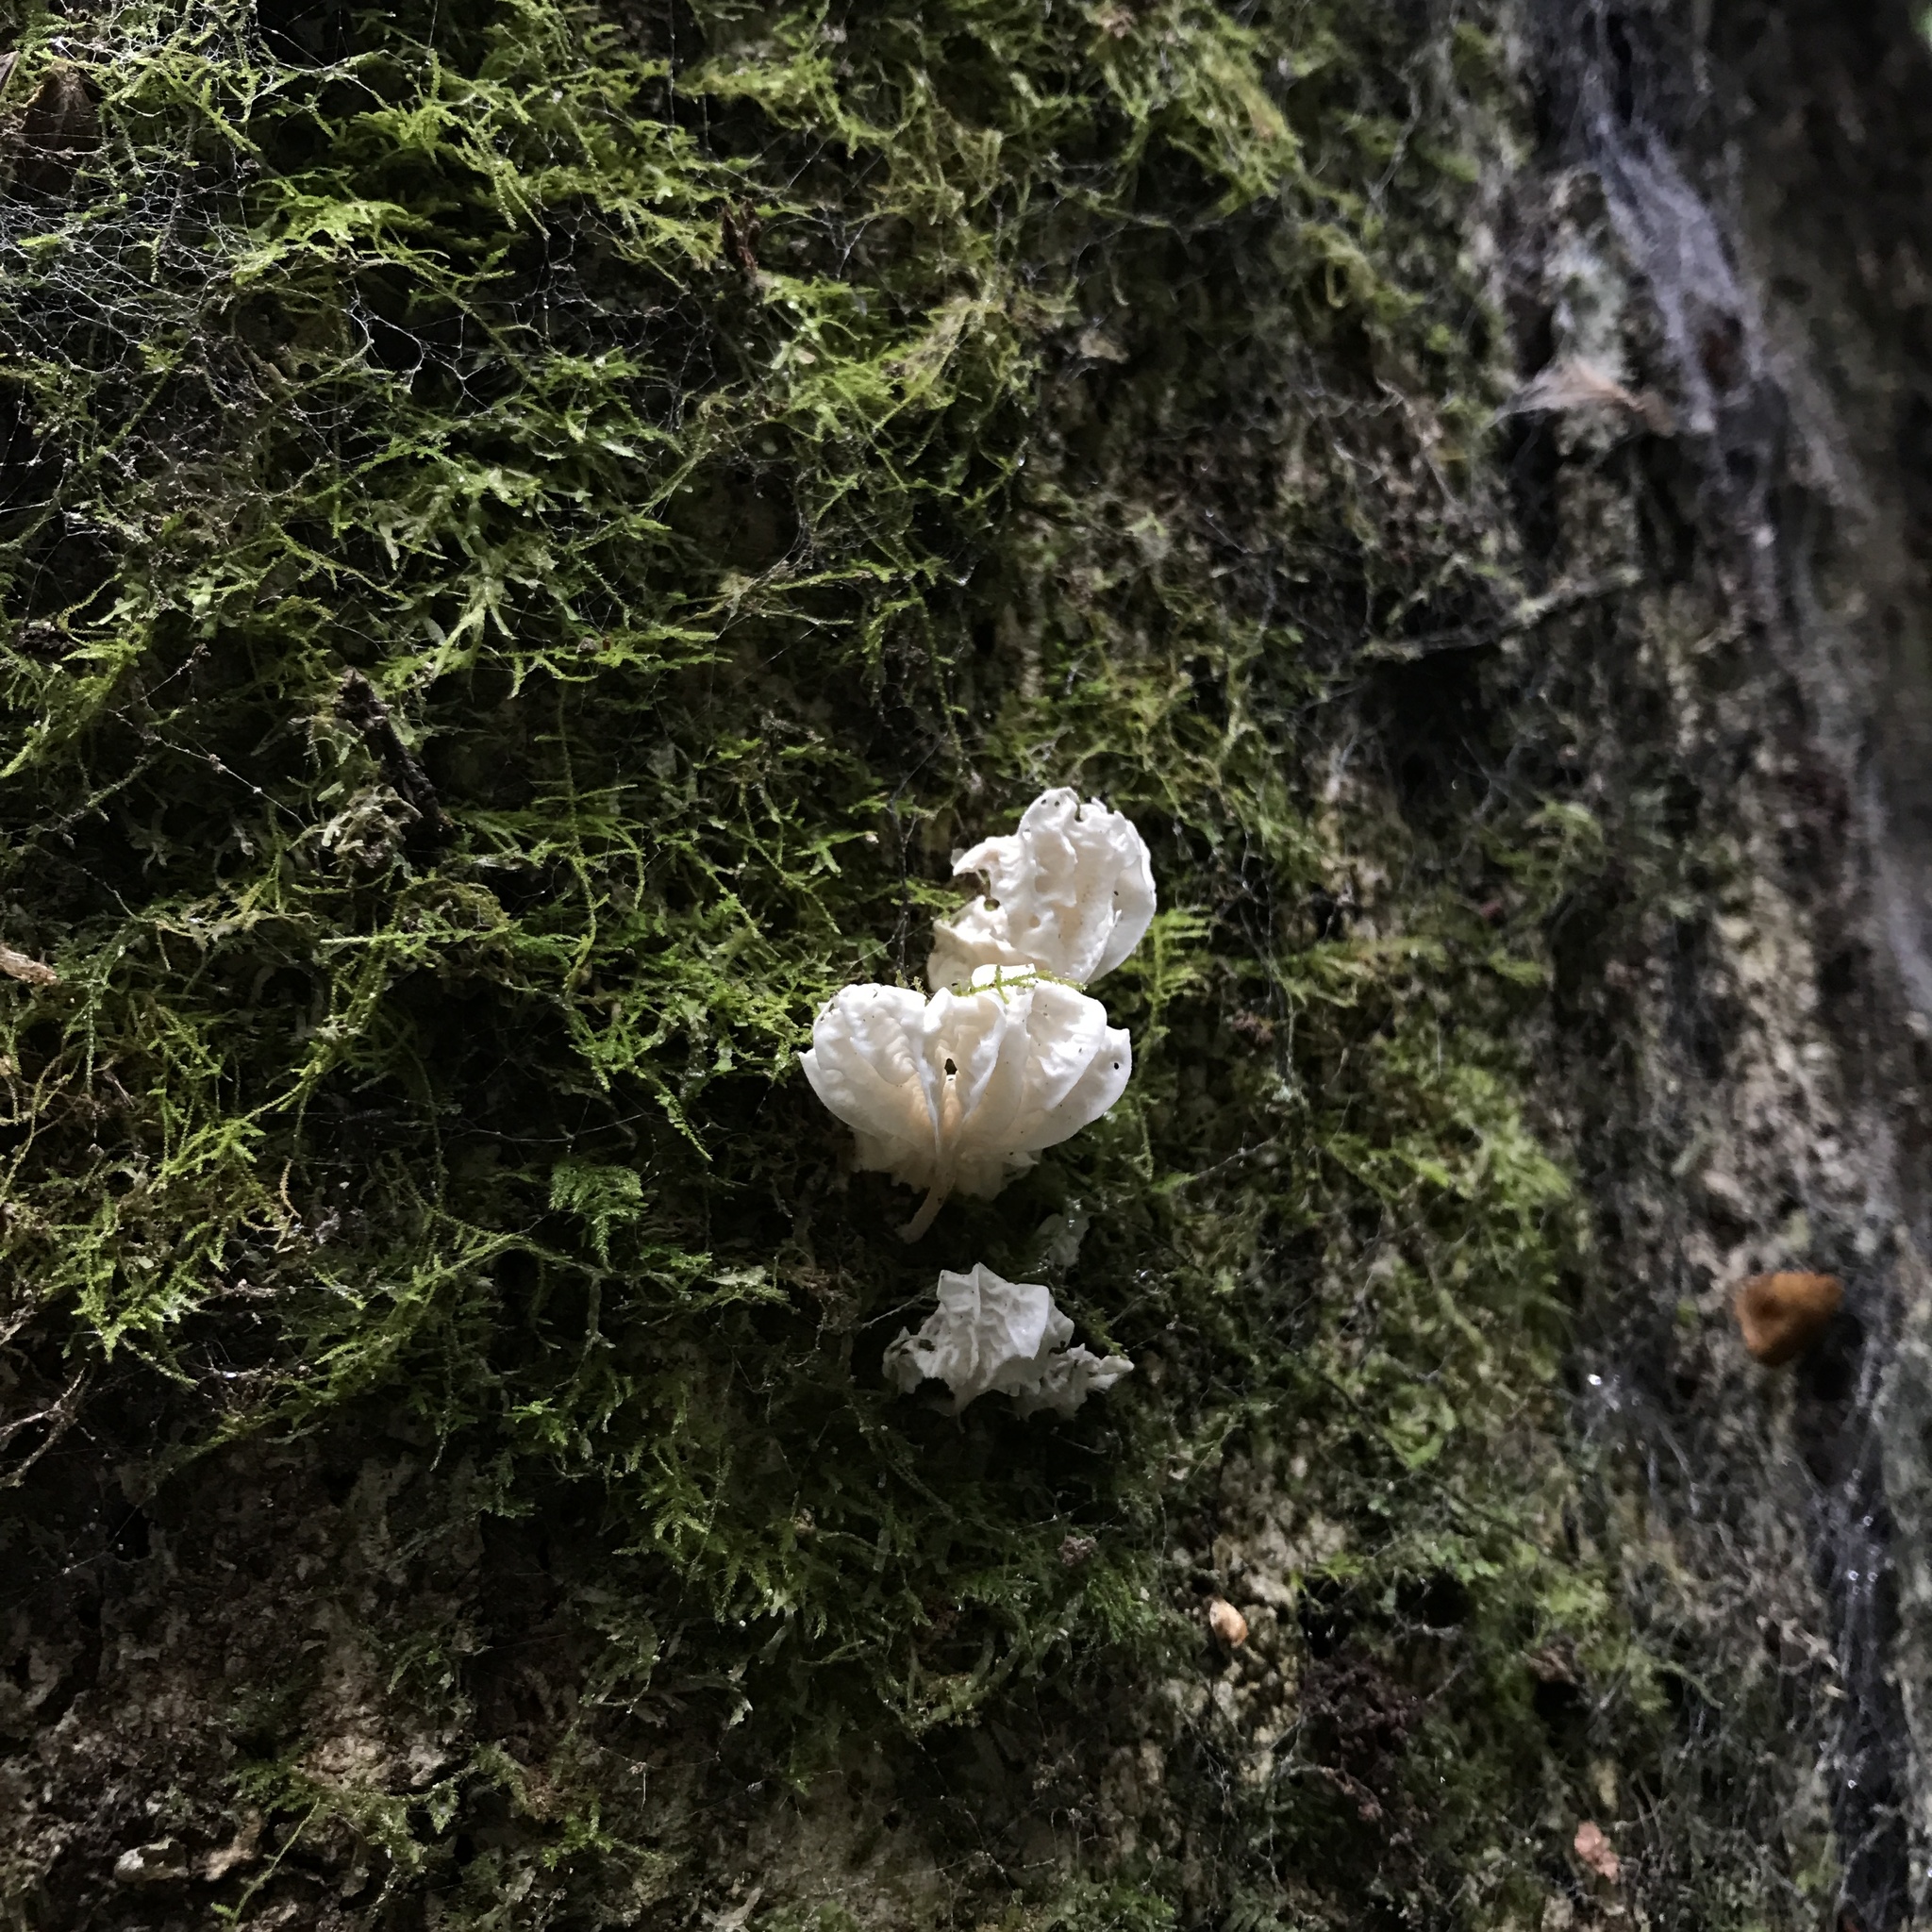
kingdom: Fungi
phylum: Basidiomycota
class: Agaricomycetes
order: Agaricales
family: Omphalotaceae
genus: Marasmiellus
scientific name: Marasmiellus alliiodorus
